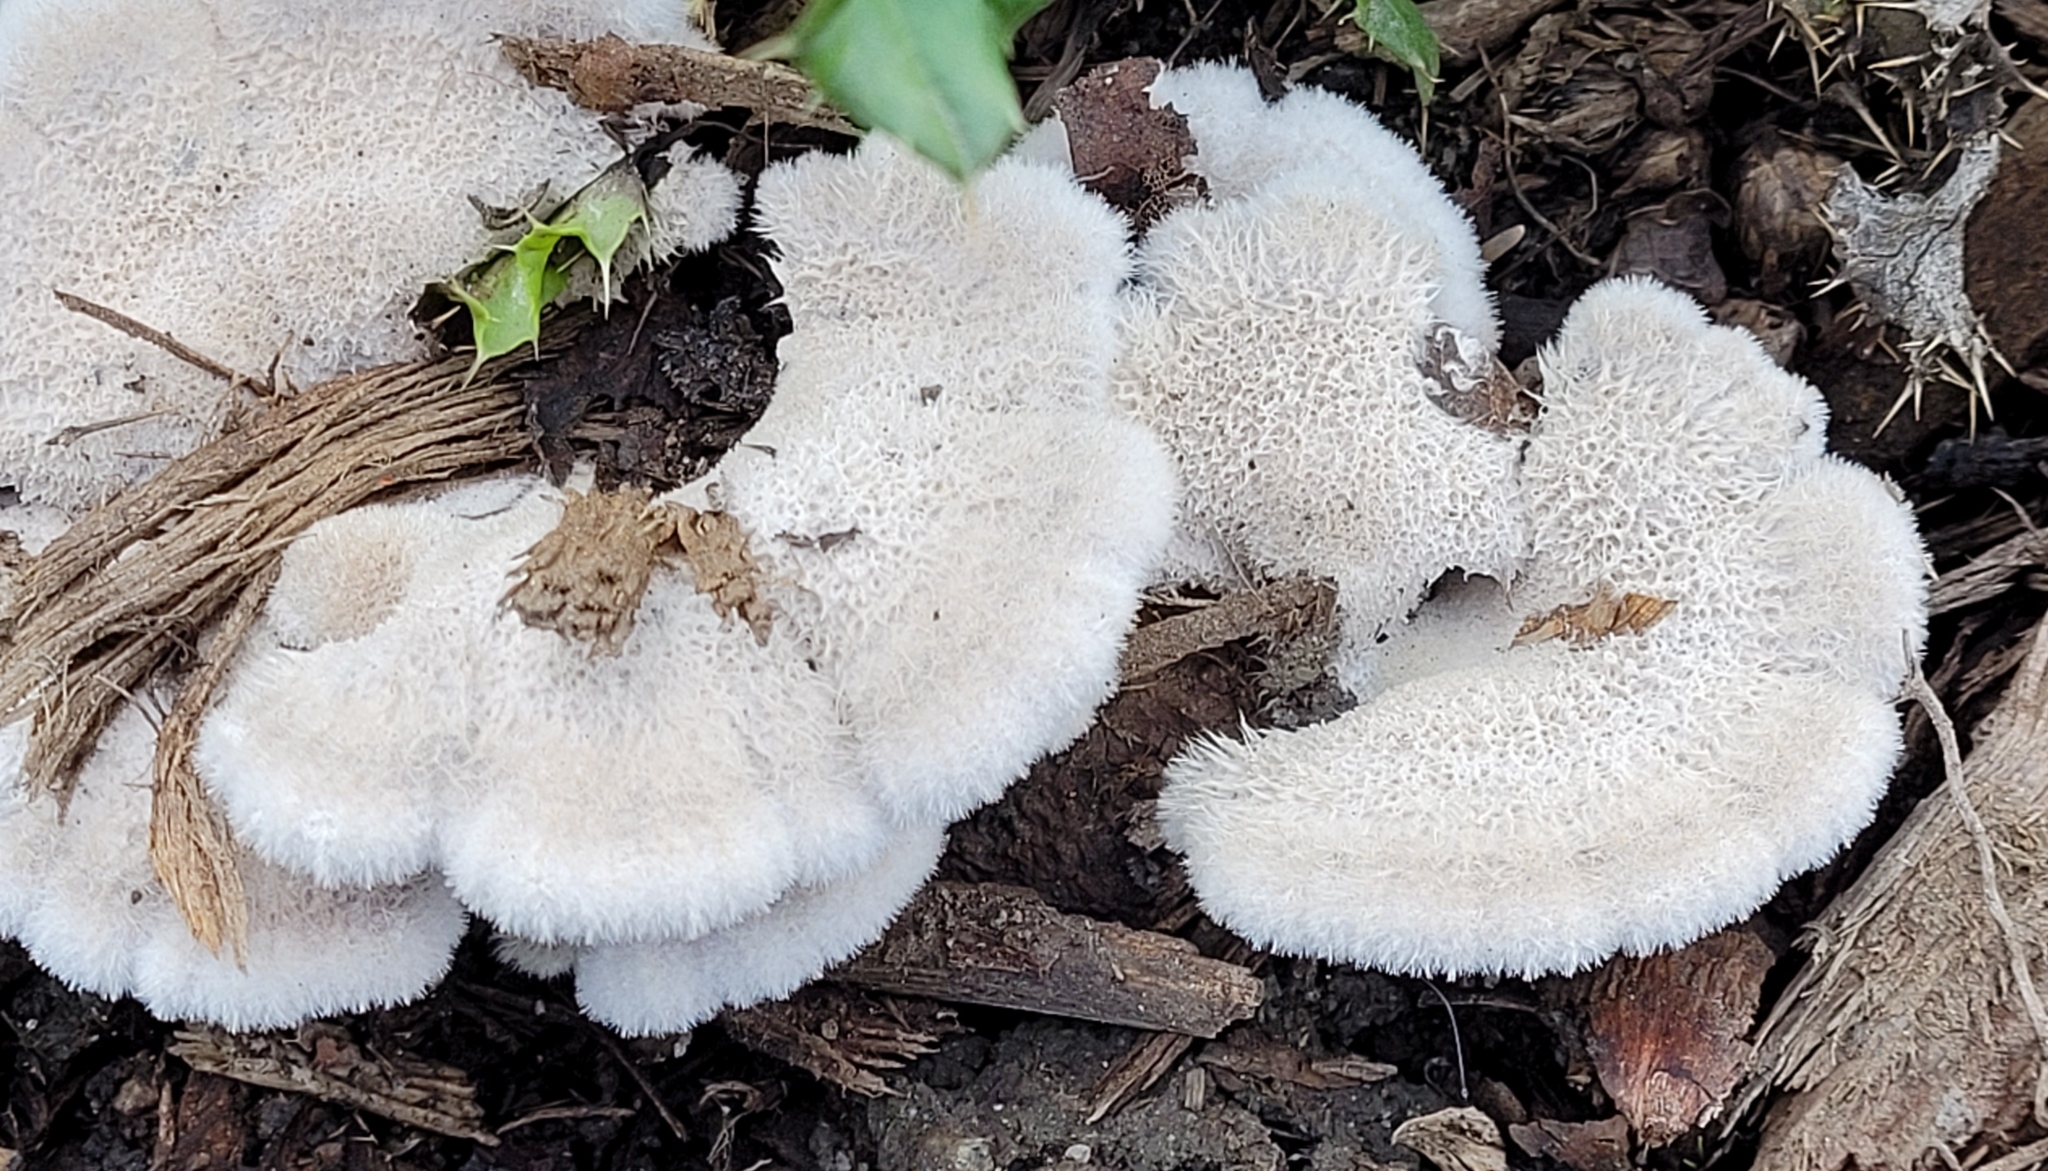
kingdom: Fungi
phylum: Basidiomycota
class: Agaricomycetes
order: Agaricales
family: Schizophyllaceae
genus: Schizophyllum
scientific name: Schizophyllum commune
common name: Common porecrust
